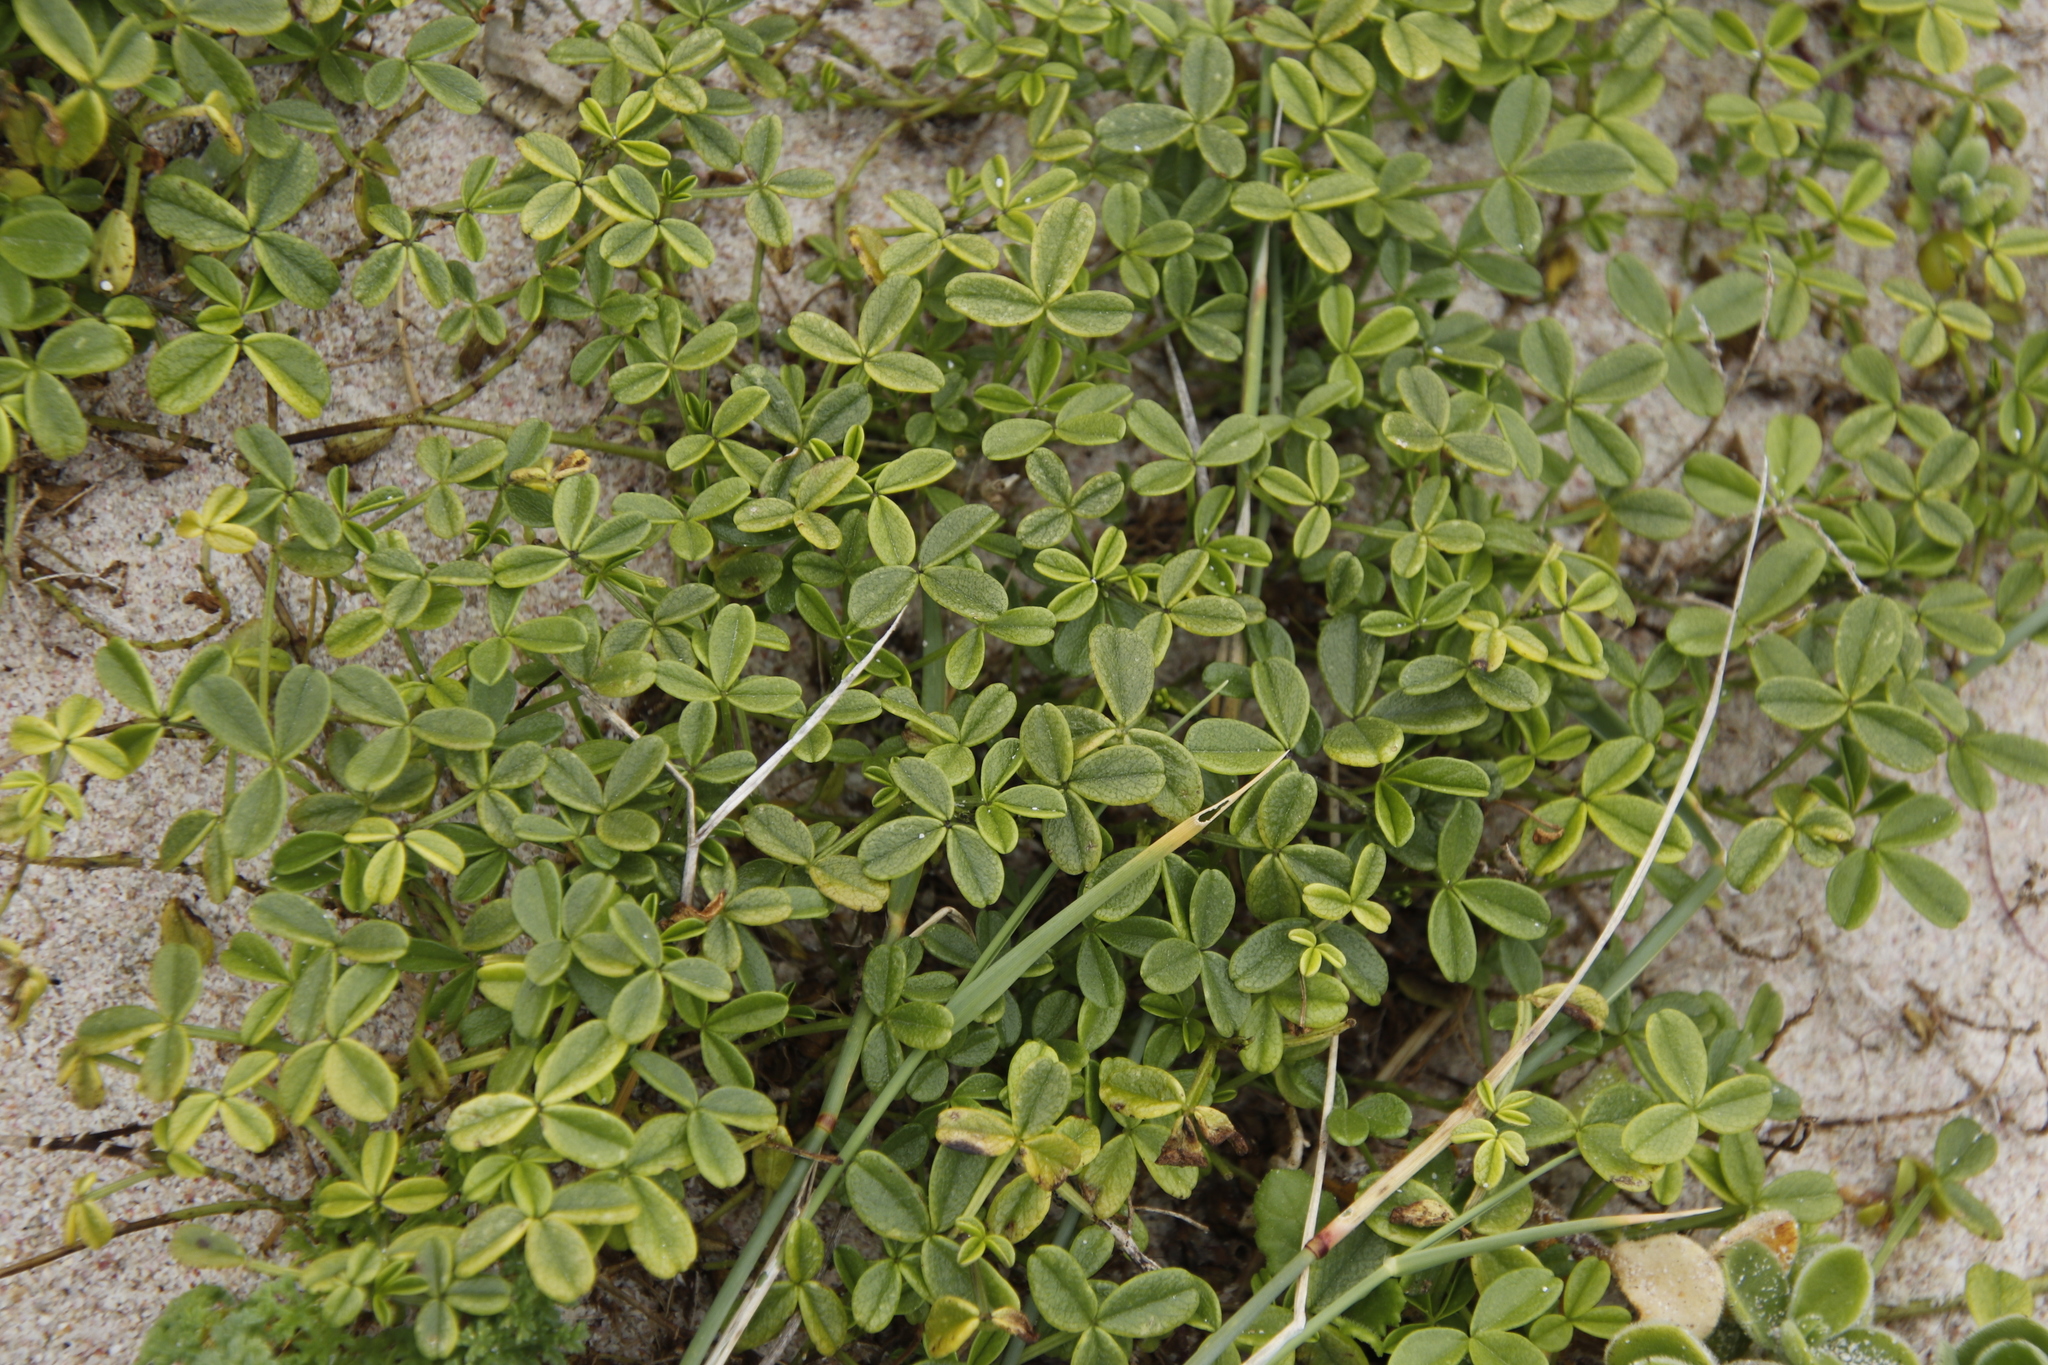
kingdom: Plantae
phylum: Tracheophyta
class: Magnoliopsida
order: Fabales
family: Fabaceae
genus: Psoralea
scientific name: Psoralea repens
